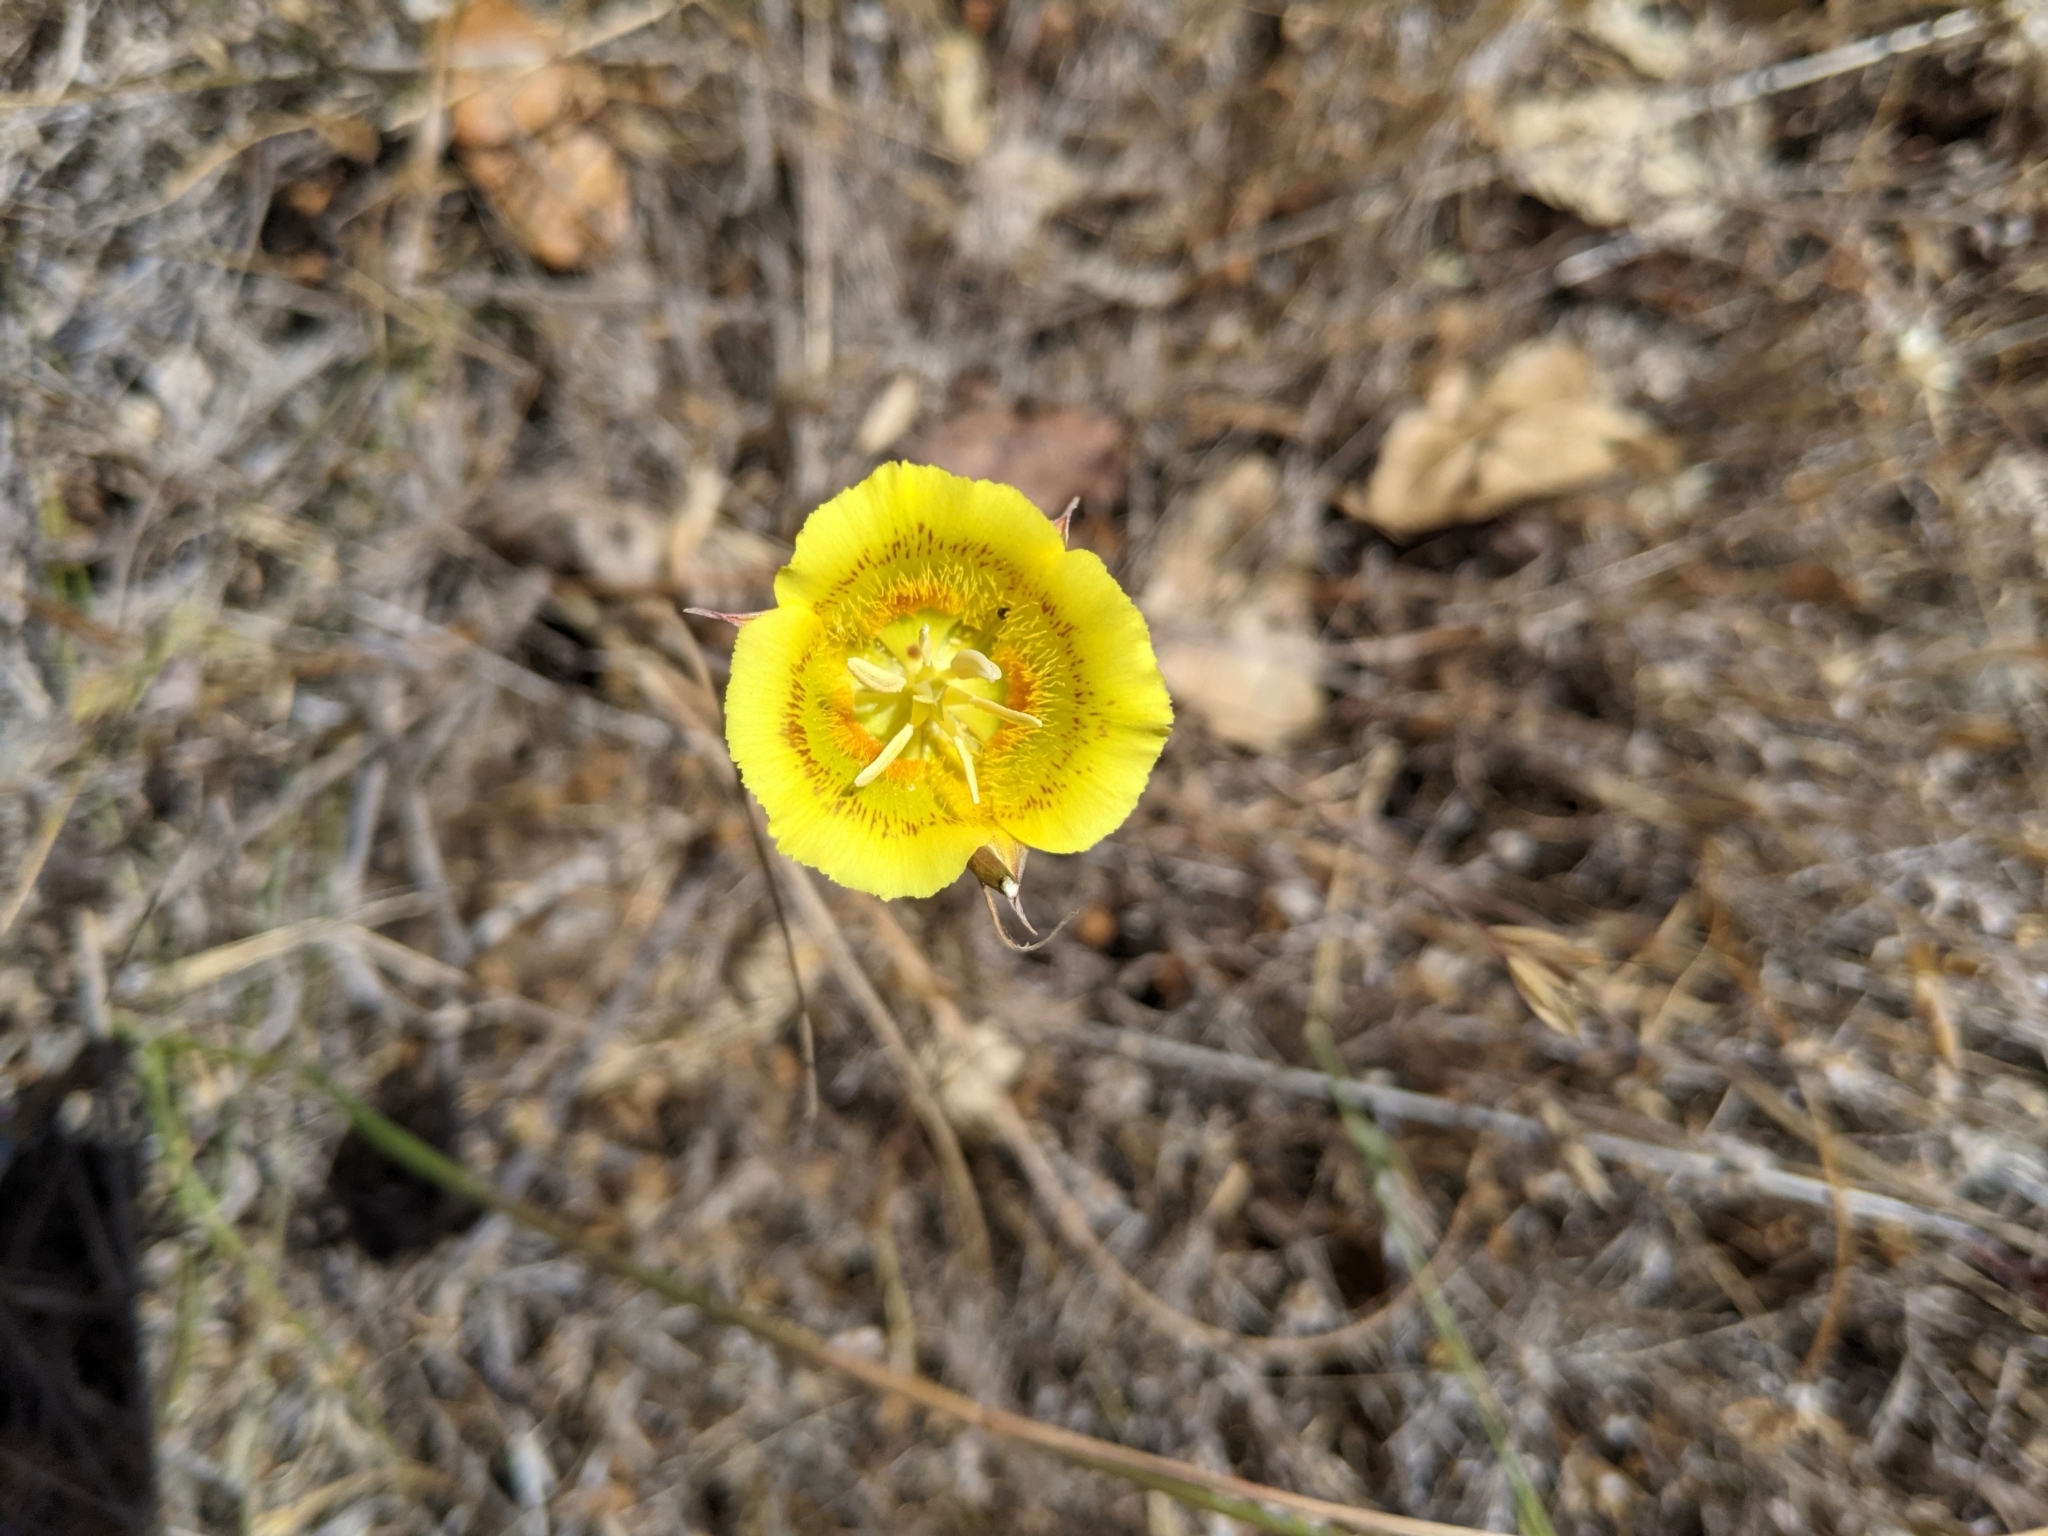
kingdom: Plantae
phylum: Tracheophyta
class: Liliopsida
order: Liliales
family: Liliaceae
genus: Calochortus
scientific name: Calochortus luteus
